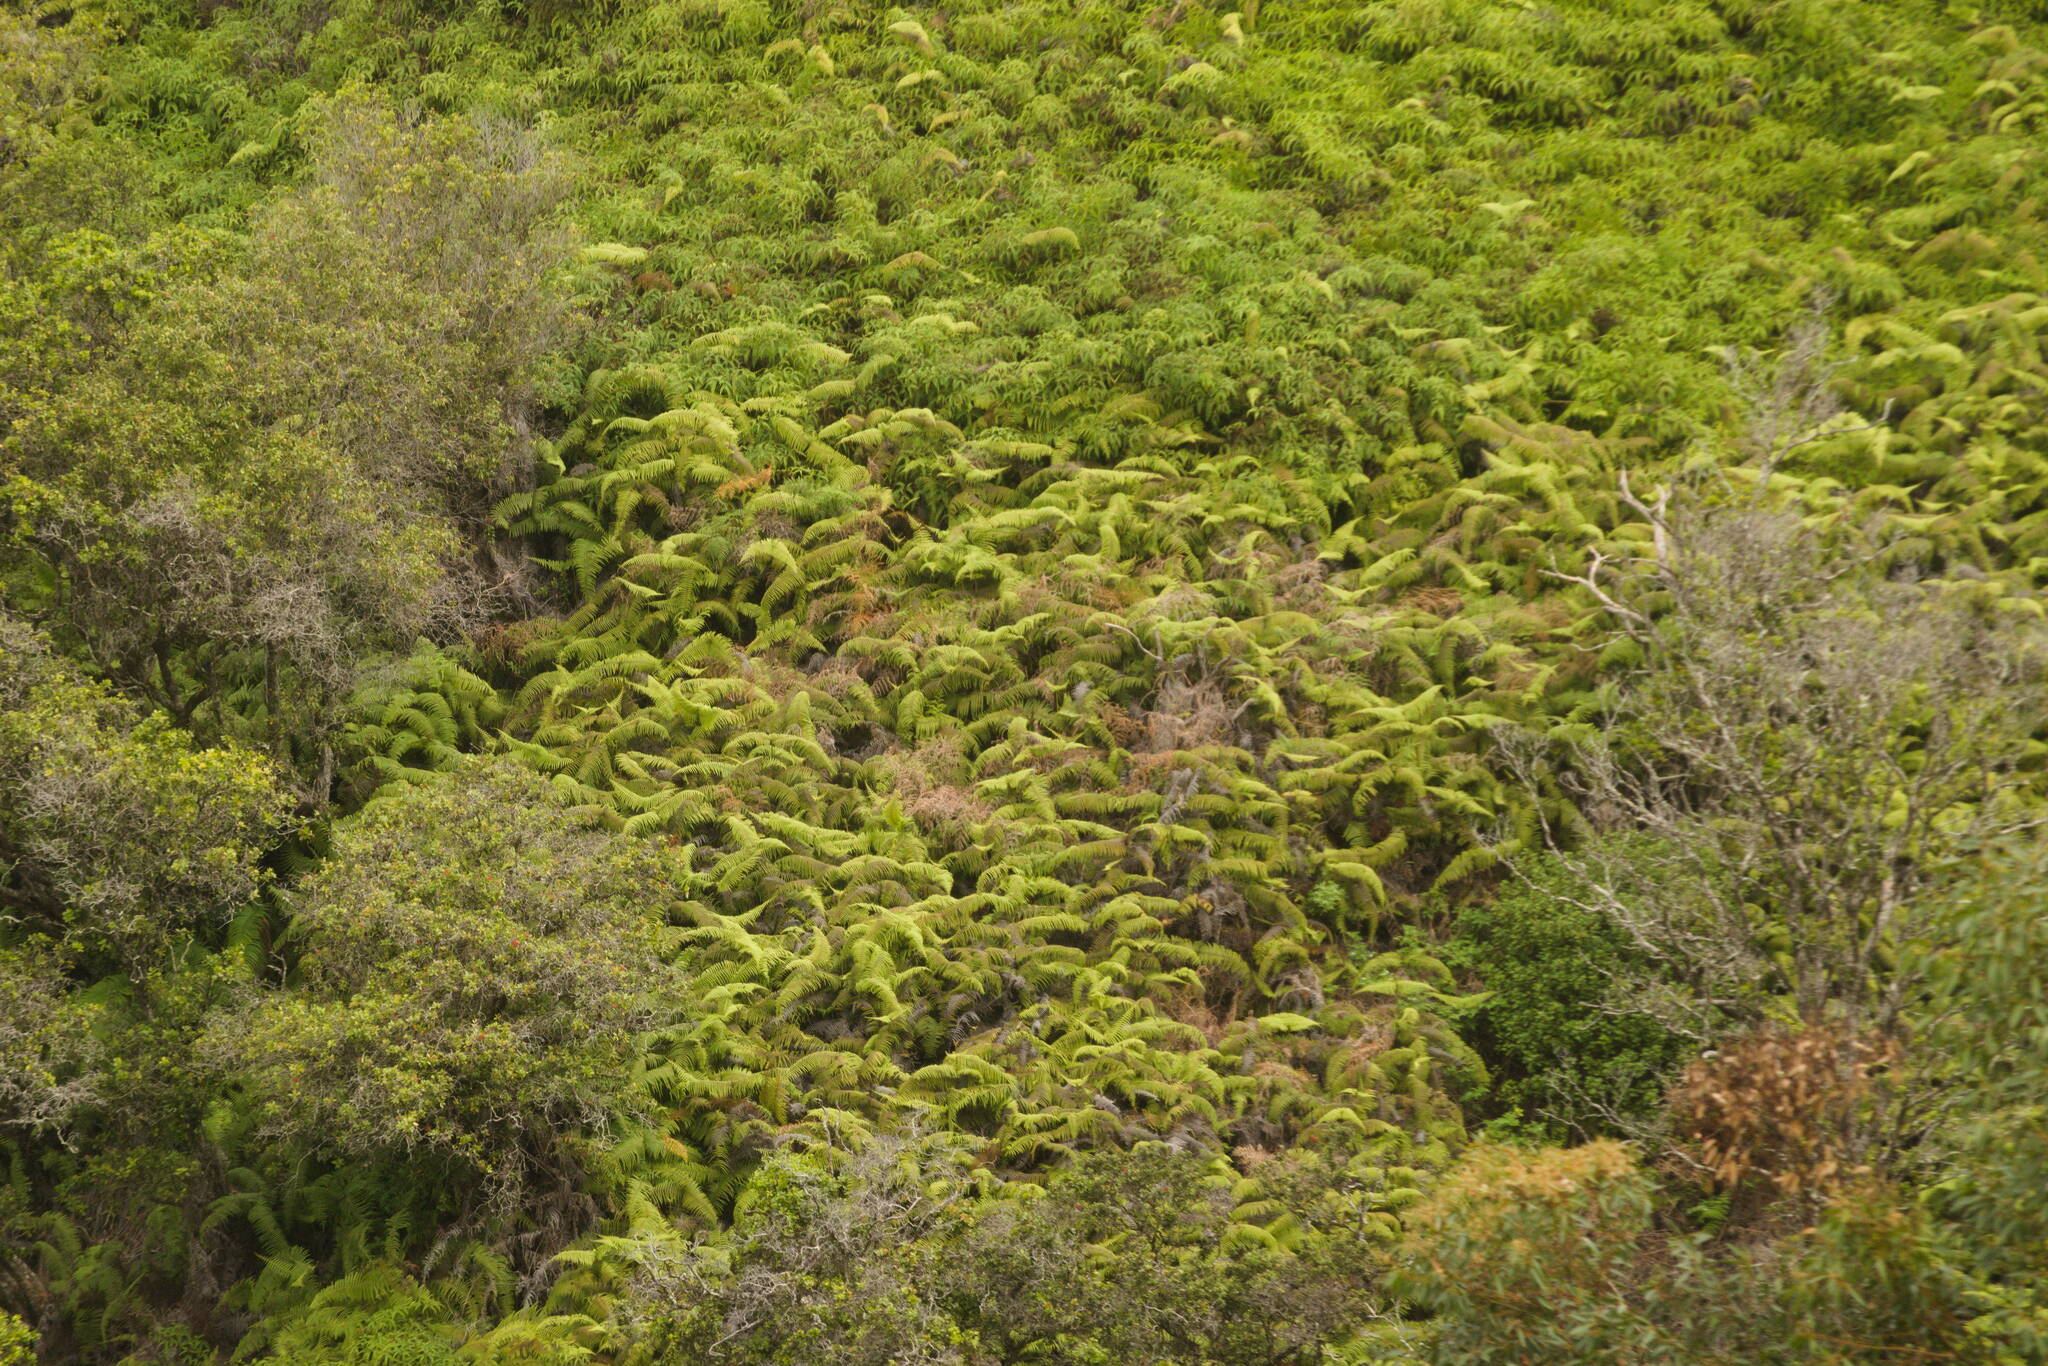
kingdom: Plantae
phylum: Tracheophyta
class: Polypodiopsida
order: Gleicheniales
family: Gleicheniaceae
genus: Diplopterygium
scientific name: Diplopterygium pinnatum
